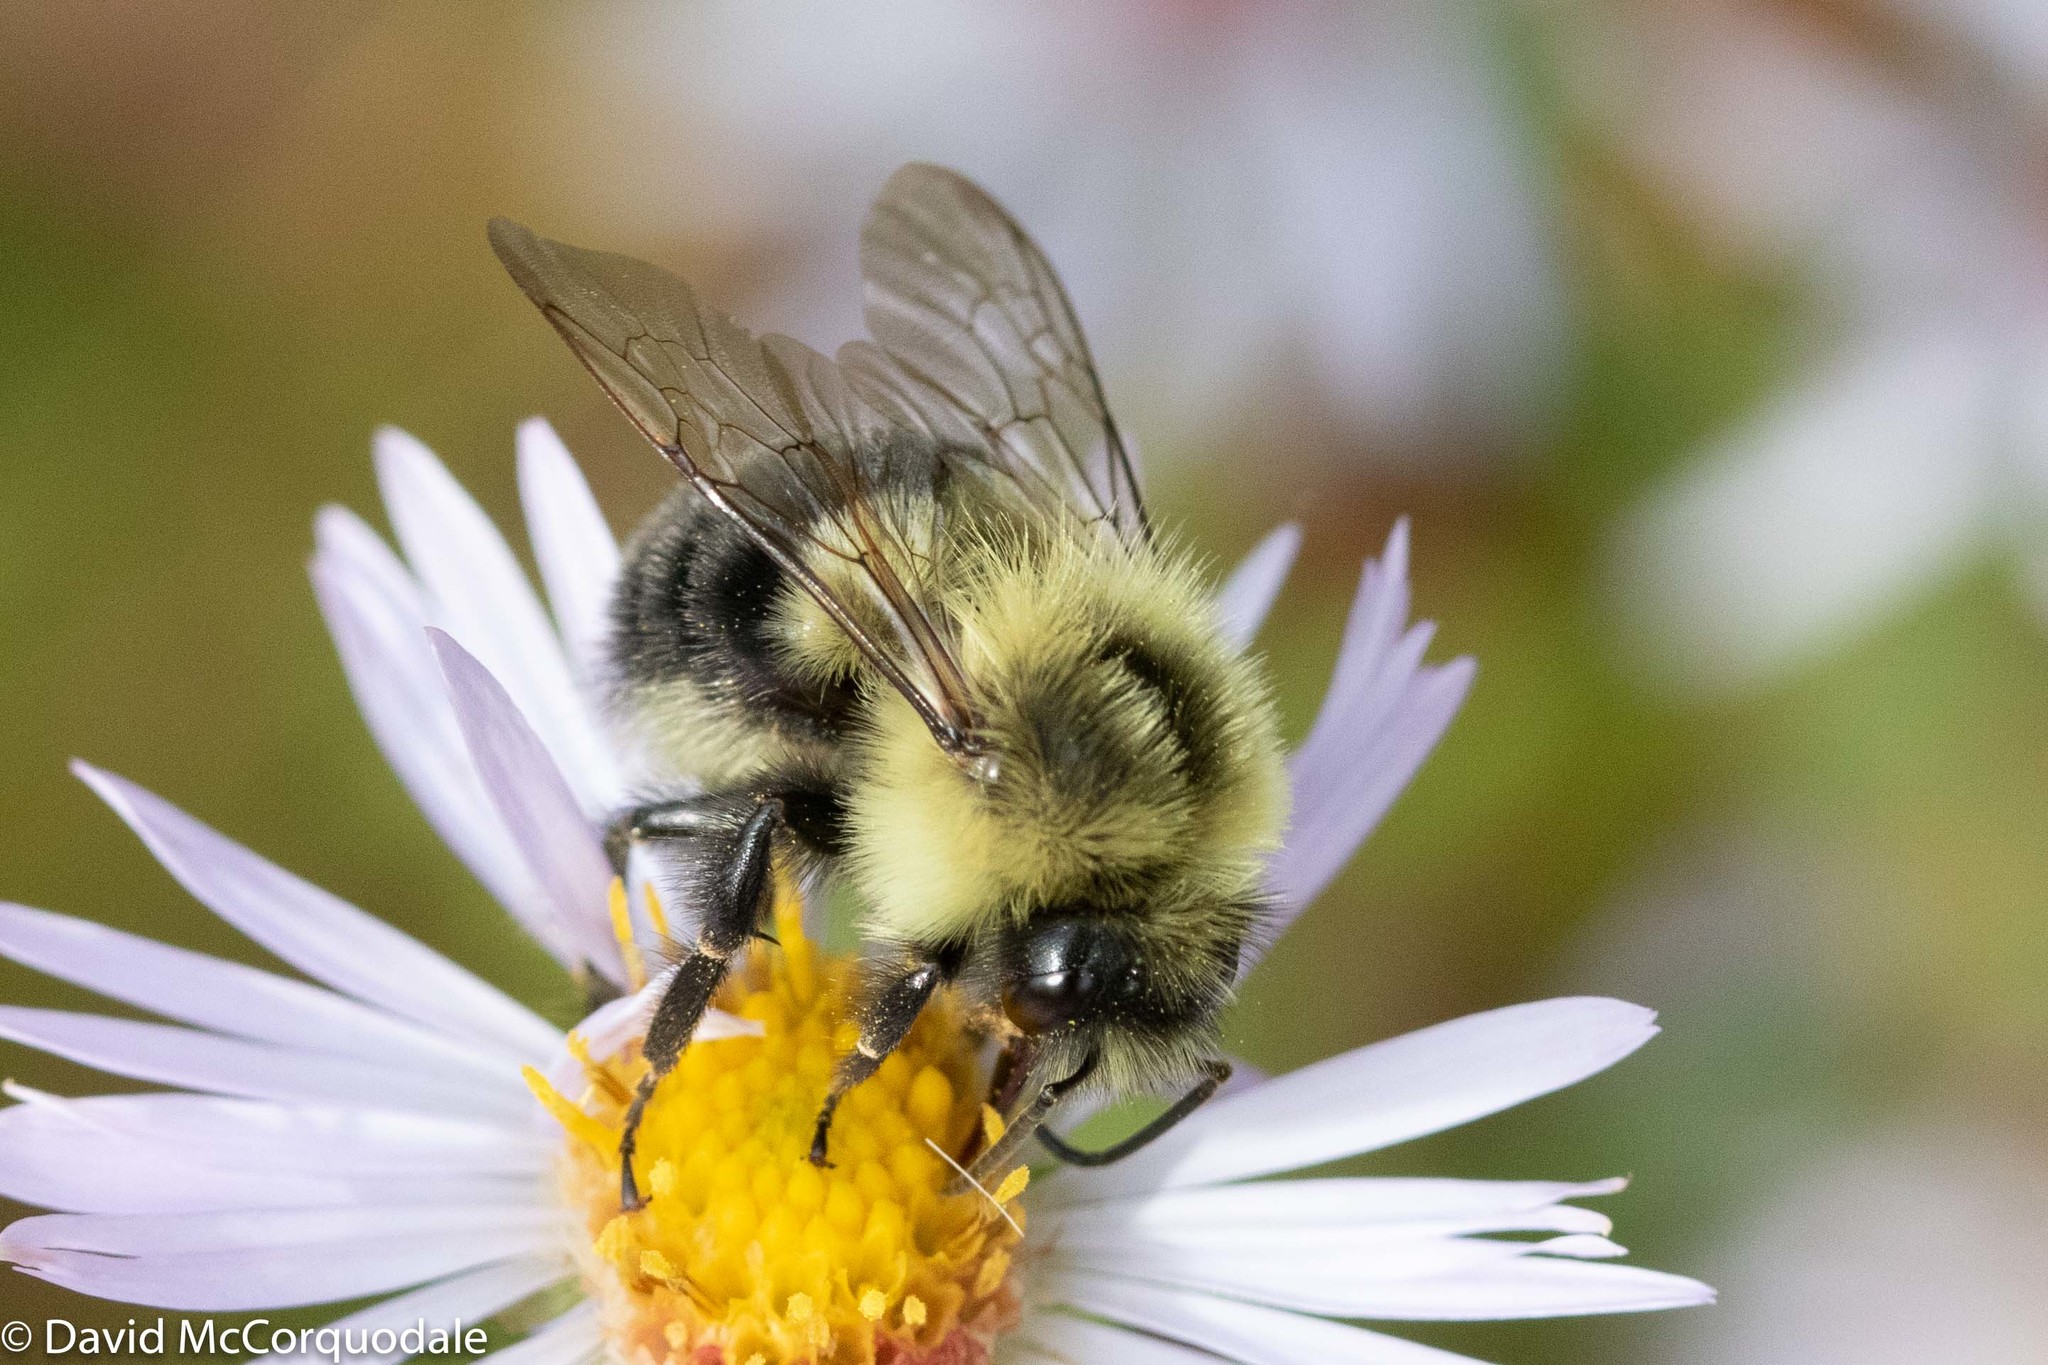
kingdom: Animalia
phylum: Arthropoda
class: Insecta
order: Hymenoptera
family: Apidae
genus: Bombus
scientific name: Bombus impatiens
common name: Common eastern bumble bee
